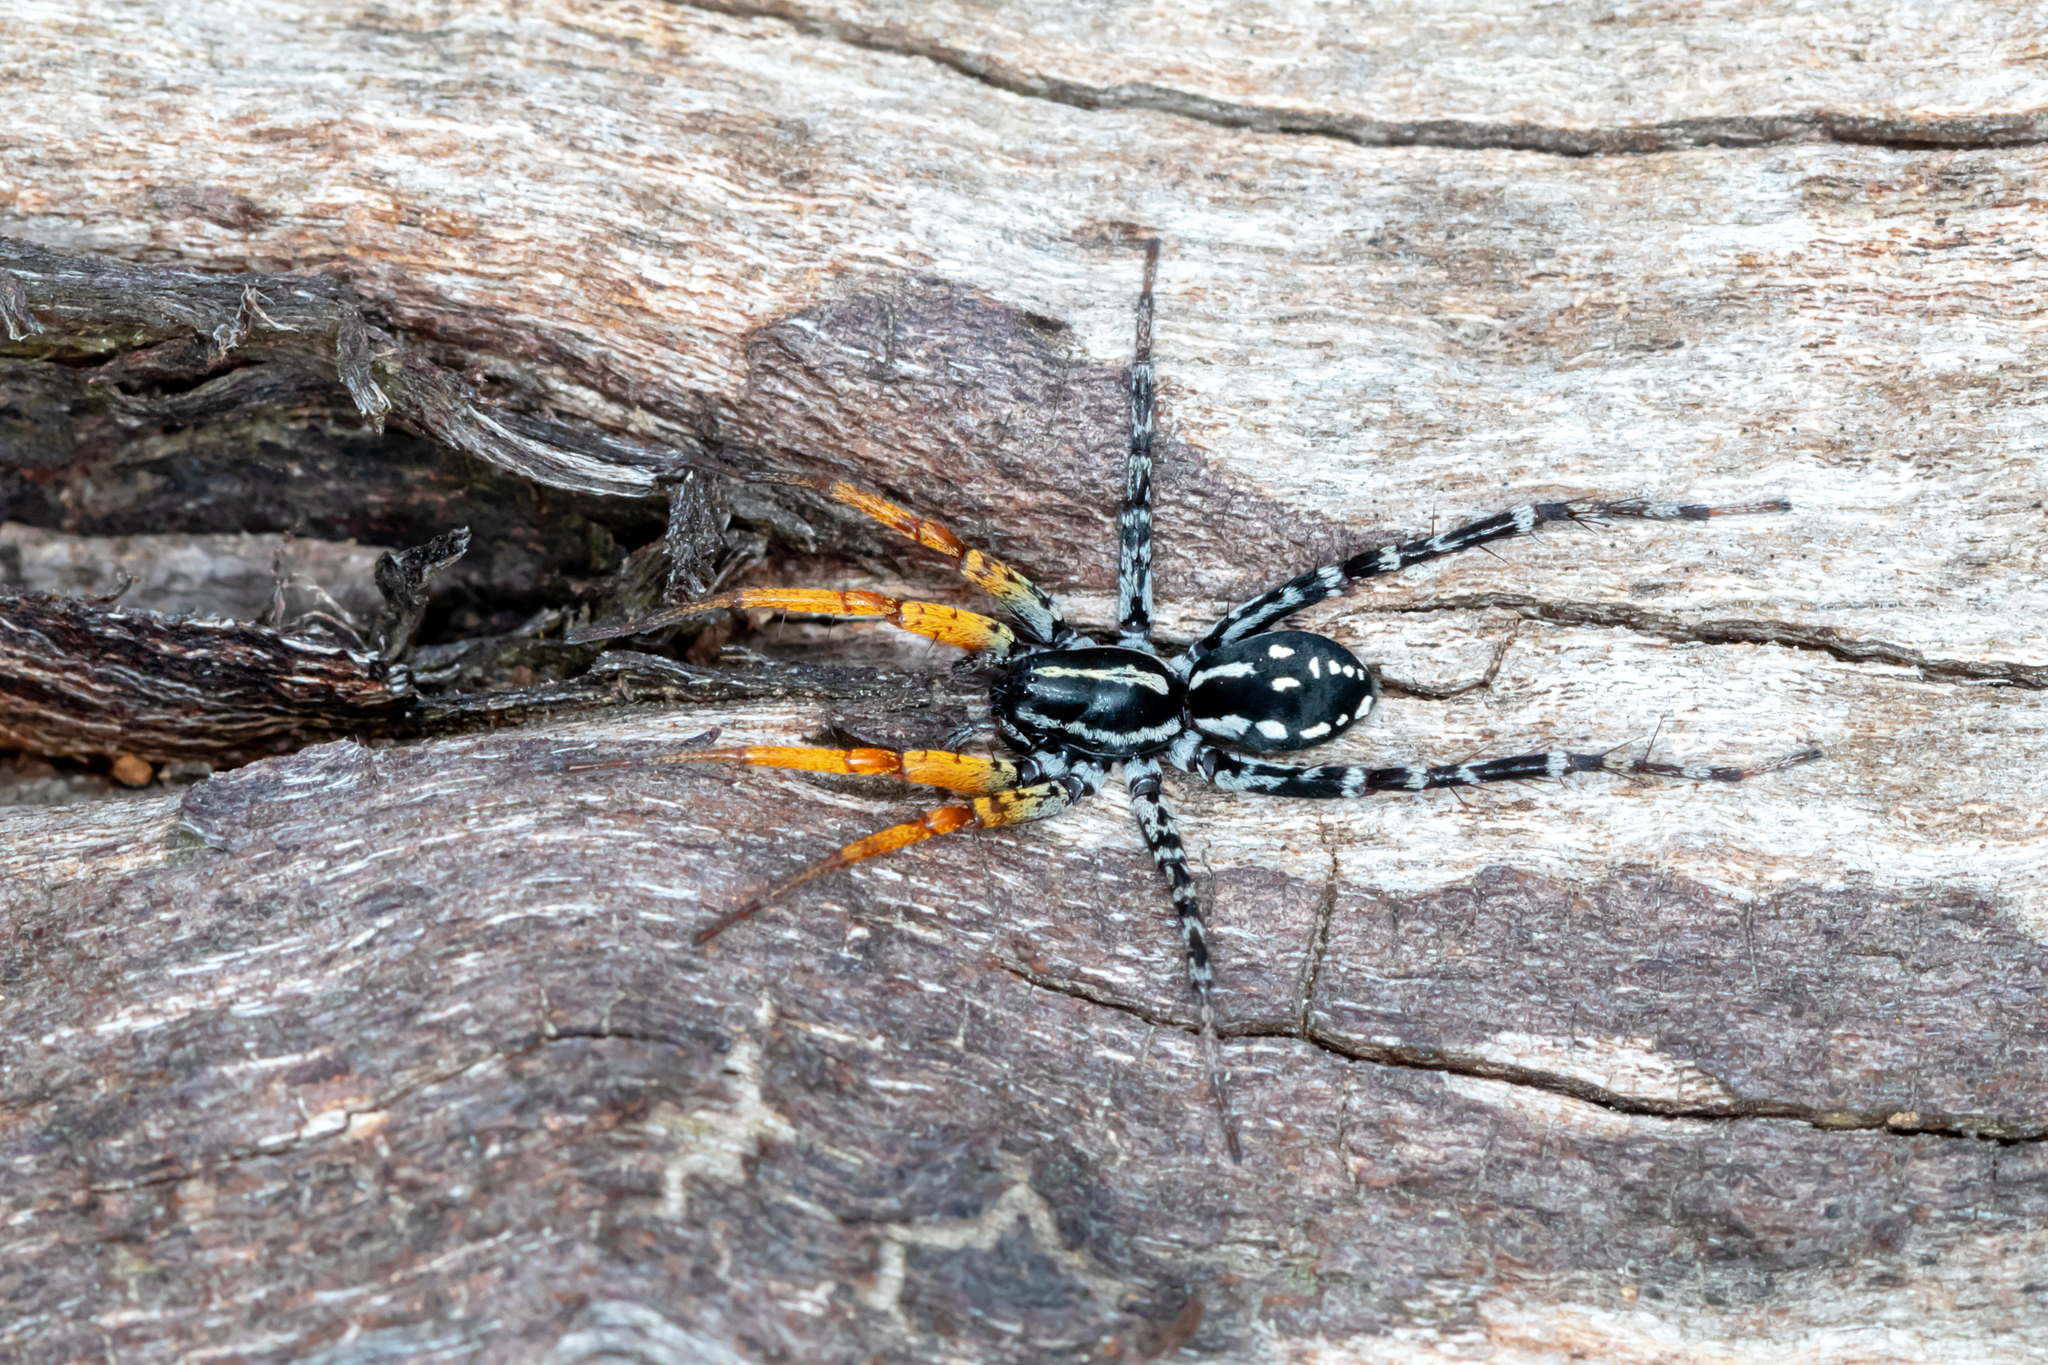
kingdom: Animalia
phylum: Arthropoda
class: Arachnida
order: Araneae
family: Corinnidae
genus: Nyssus
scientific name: Nyssus coloripes
